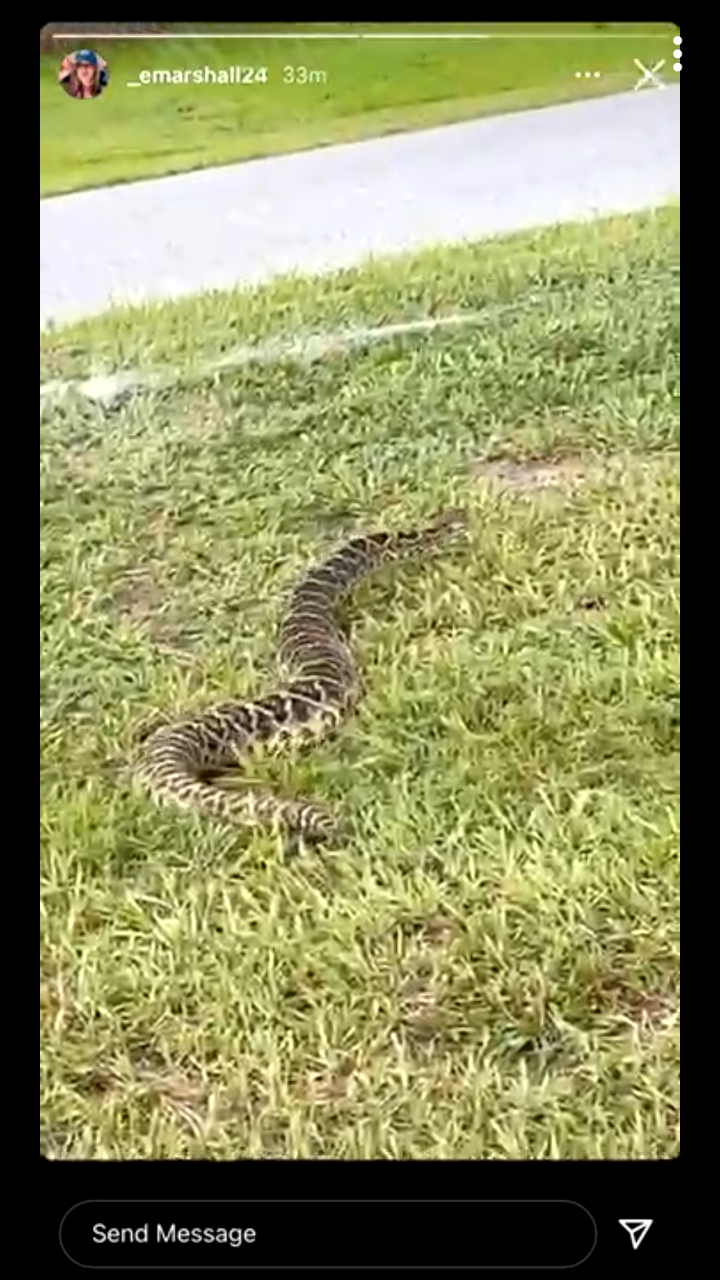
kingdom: Animalia
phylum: Chordata
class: Squamata
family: Viperidae
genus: Crotalus
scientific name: Crotalus adamanteus
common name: Eastern diamondback rattlesnake
